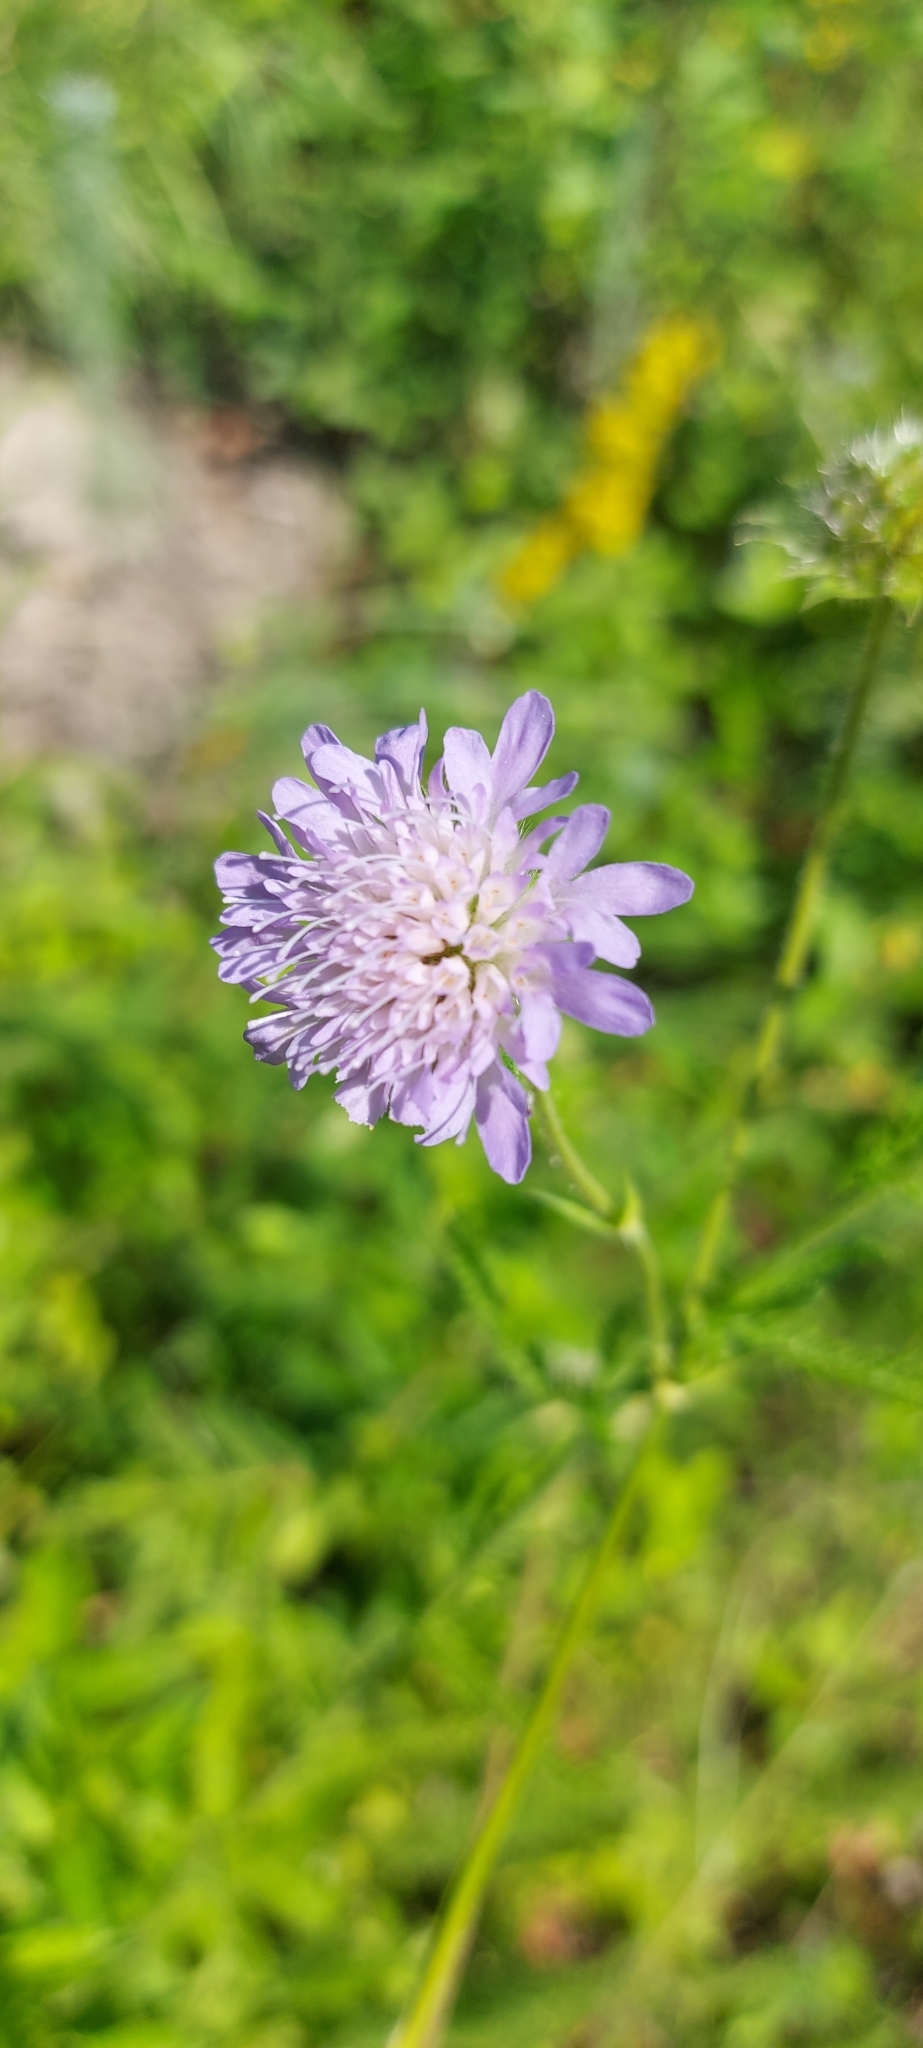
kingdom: Plantae
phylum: Tracheophyta
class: Magnoliopsida
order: Dipsacales
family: Caprifoliaceae
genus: Knautia
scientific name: Knautia arvensis
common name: Field scabiosa
